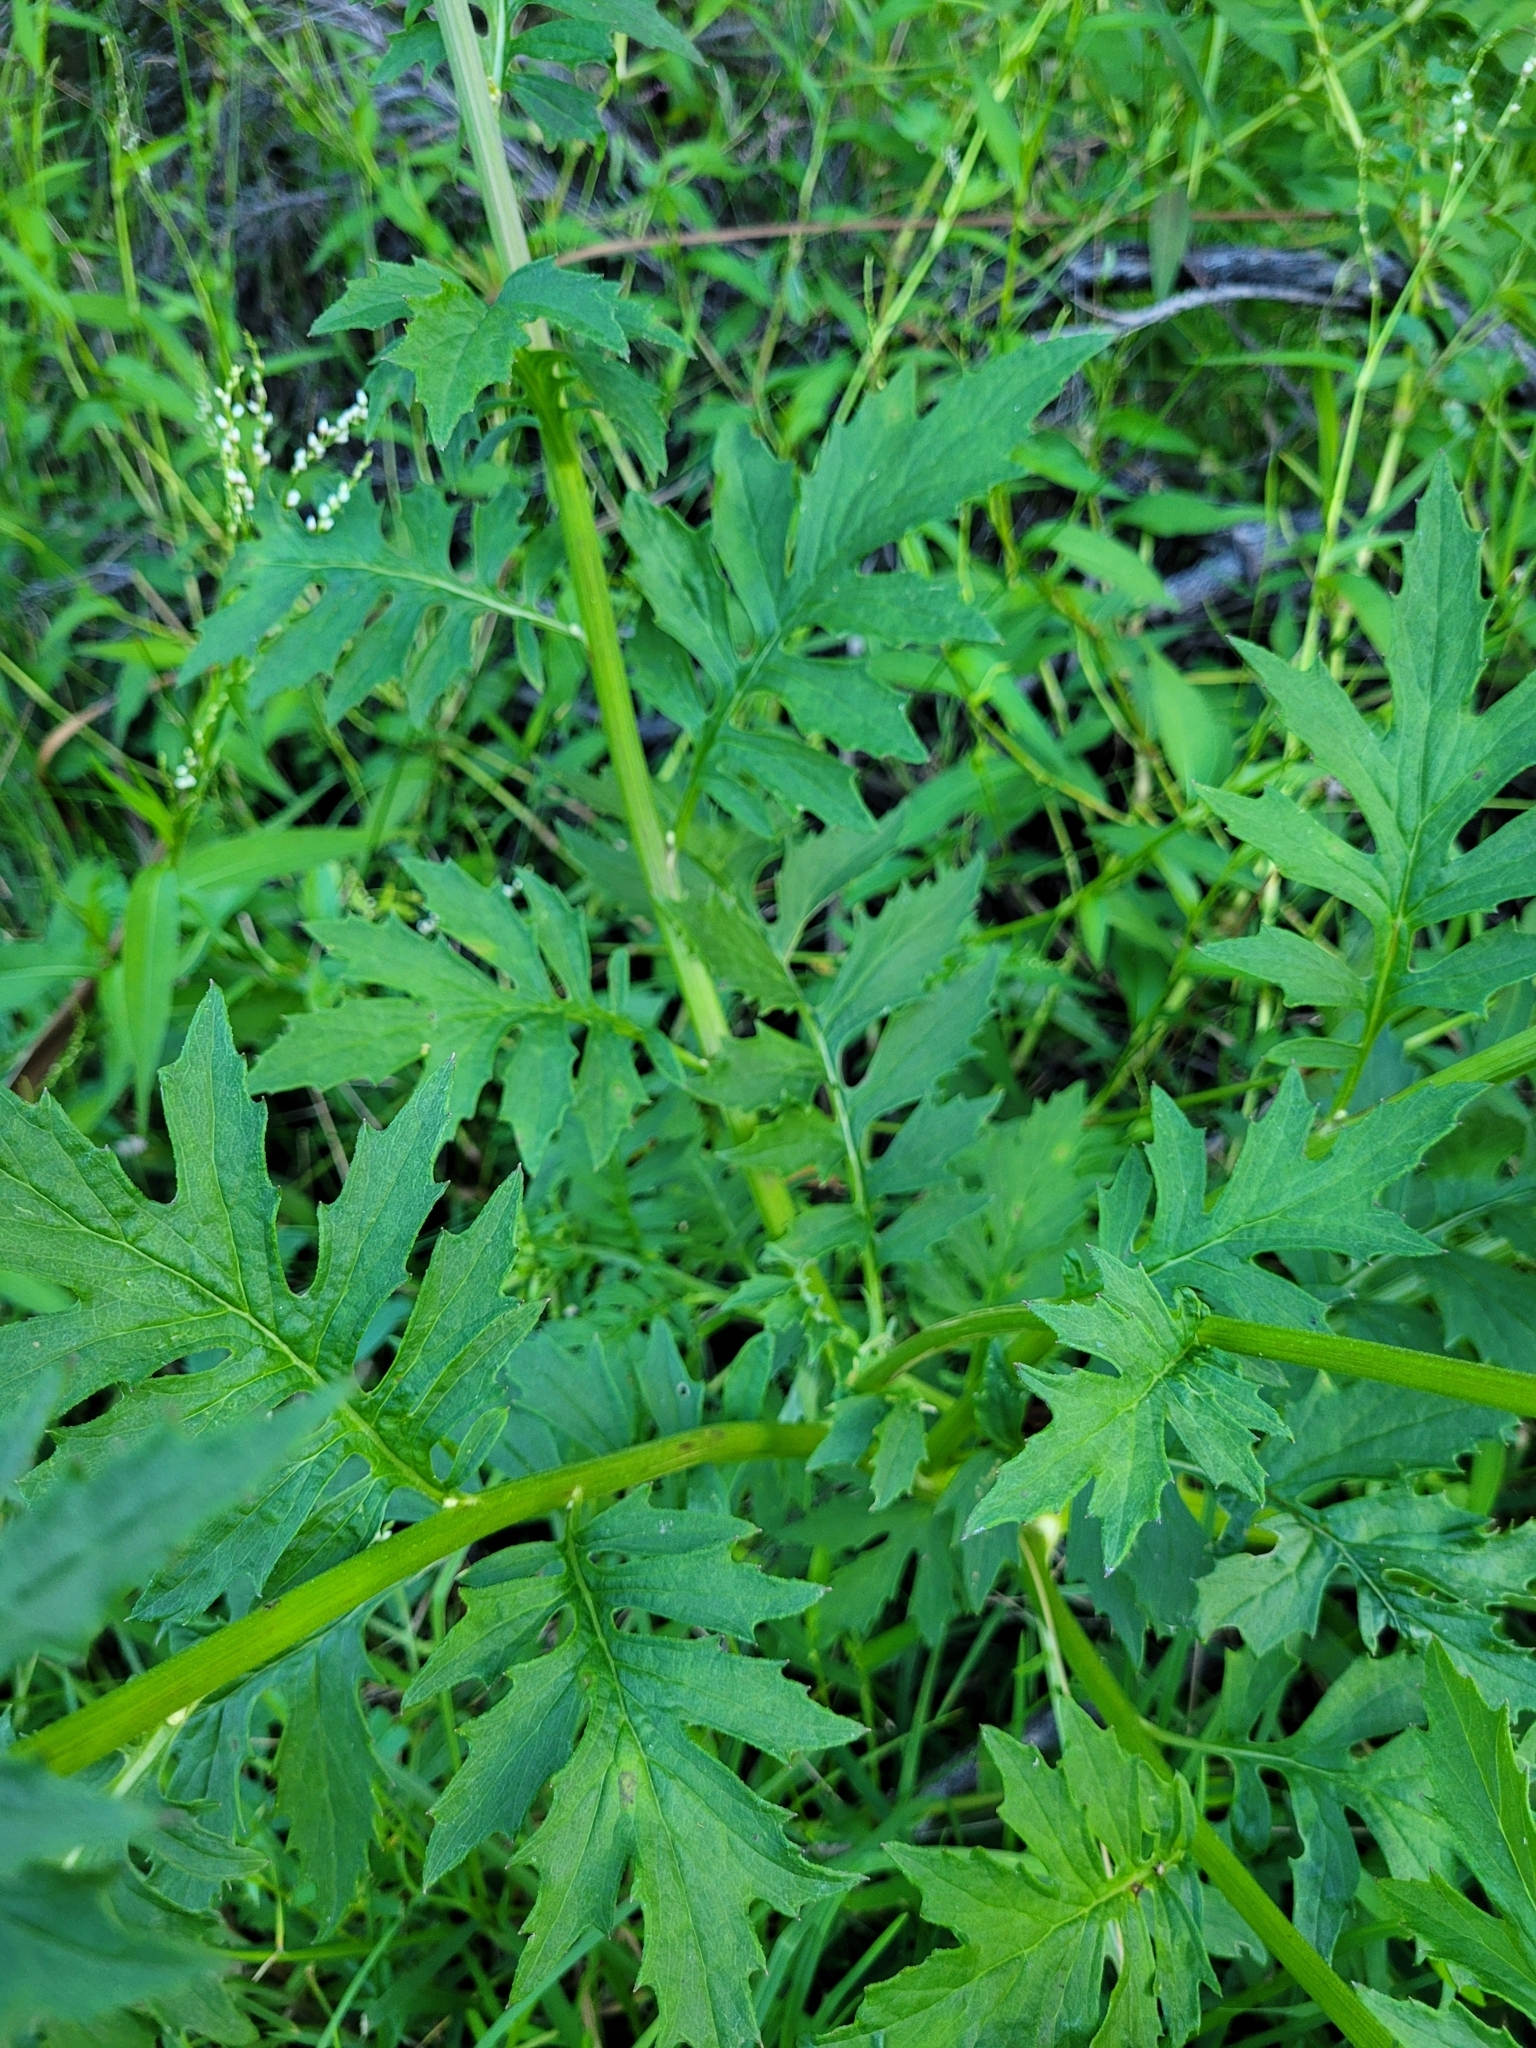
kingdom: Plantae
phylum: Tracheophyta
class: Magnoliopsida
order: Asterales
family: Asteraceae
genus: Erechtites
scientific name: Erechtites valerianifolius
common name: Tropical burnweed
